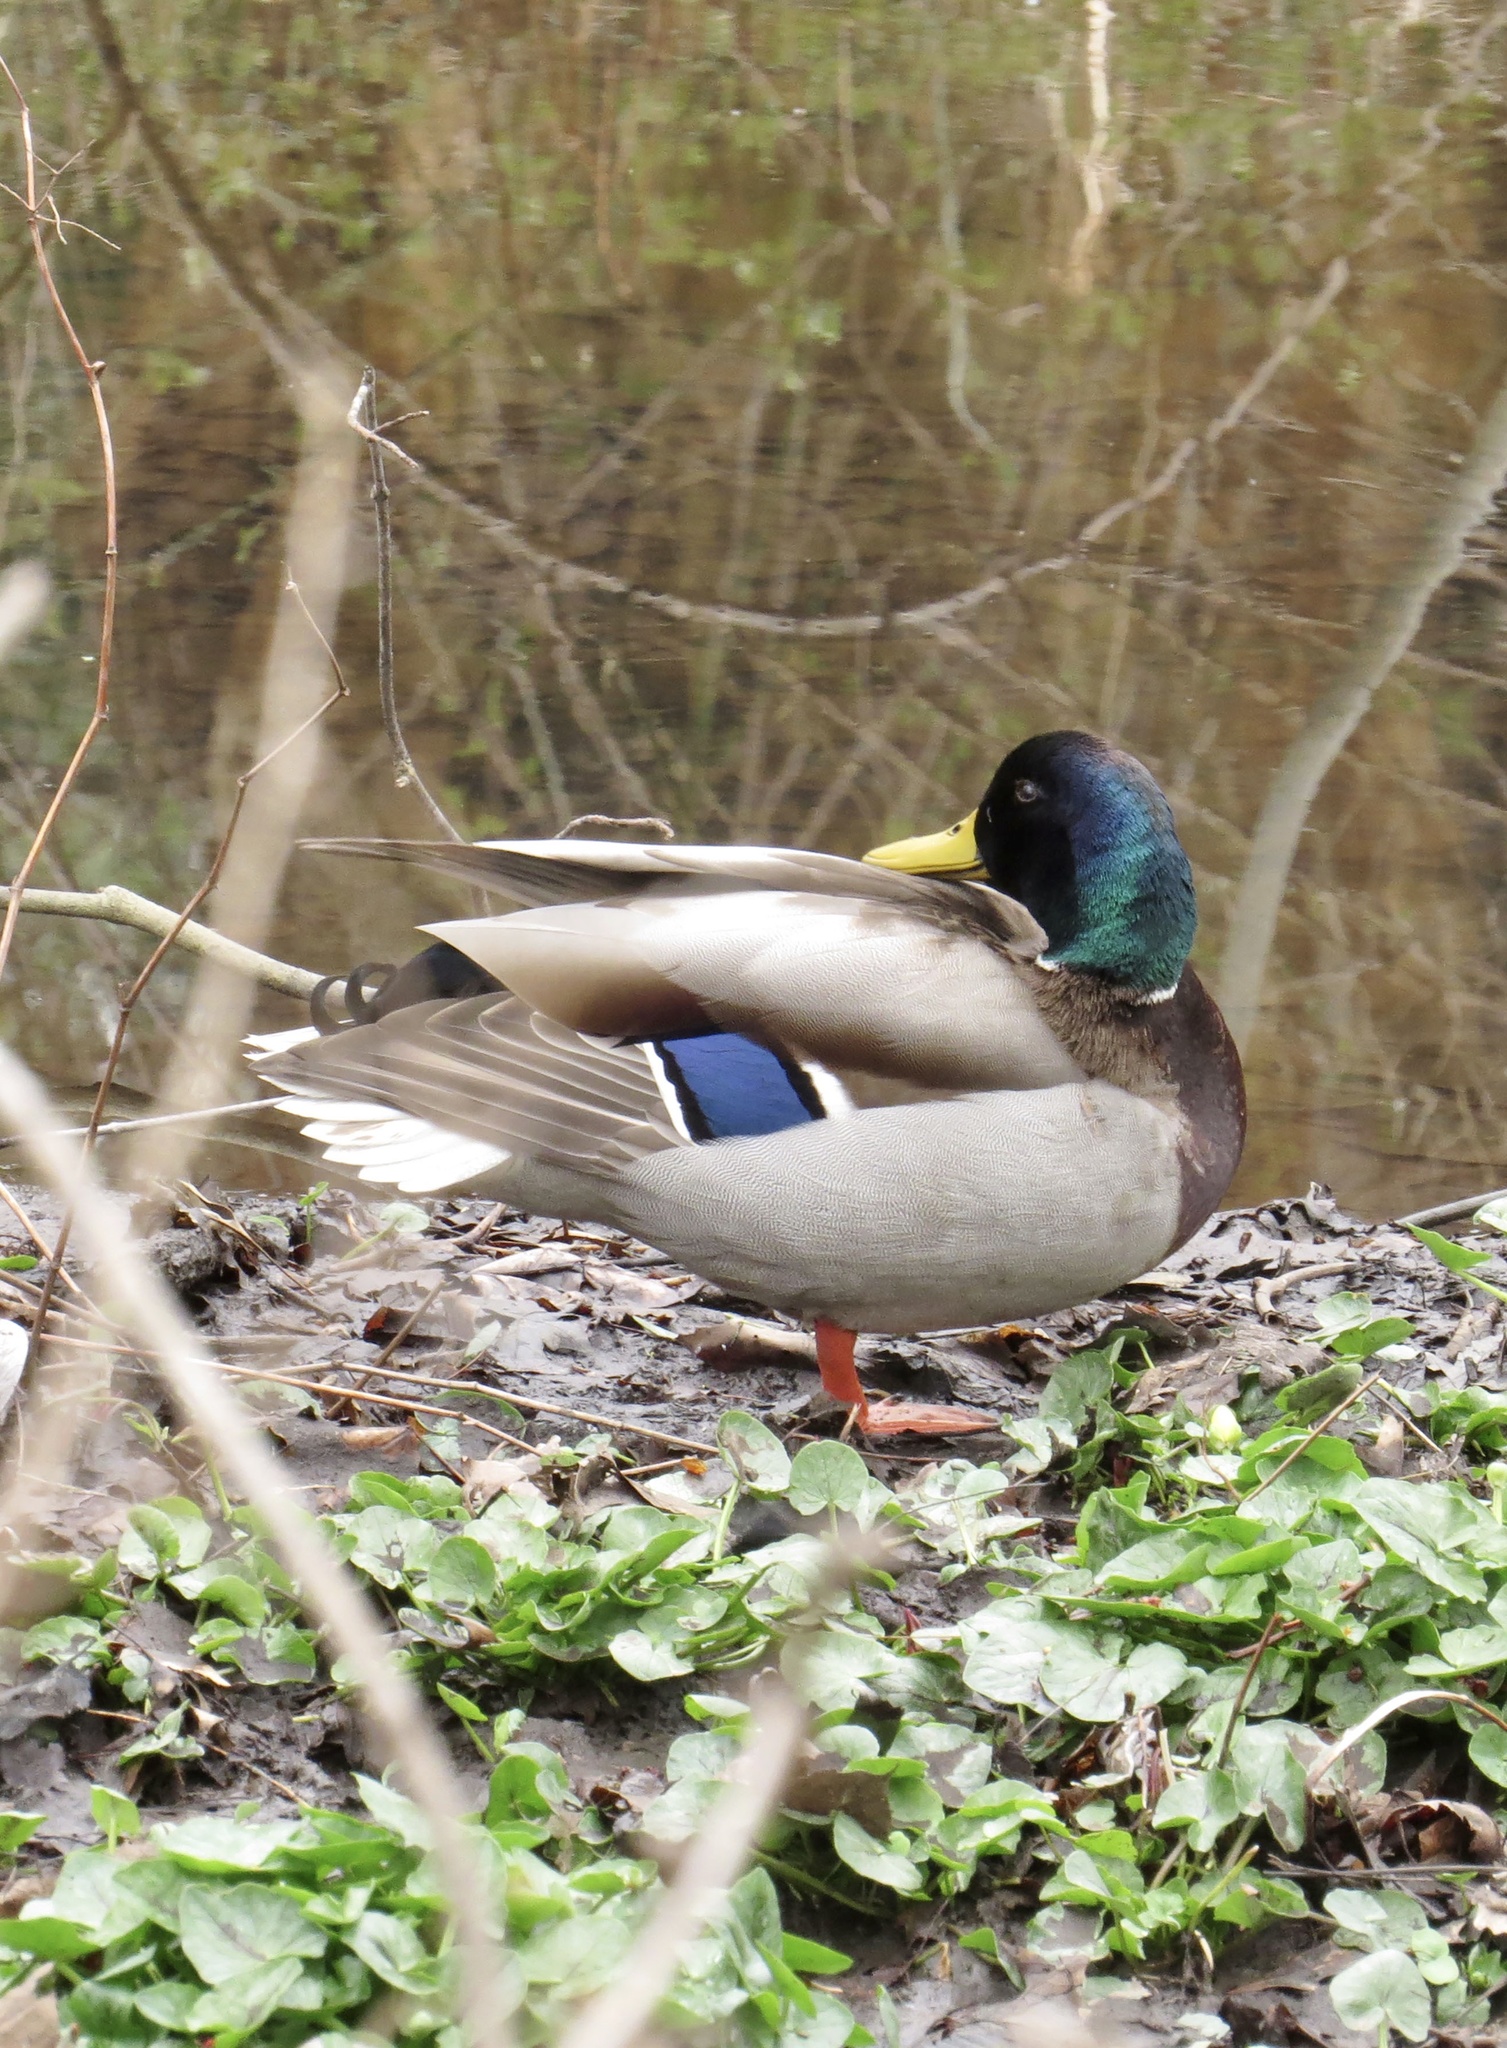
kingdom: Animalia
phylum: Chordata
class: Aves
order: Anseriformes
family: Anatidae
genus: Anas
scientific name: Anas platyrhynchos
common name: Mallard
